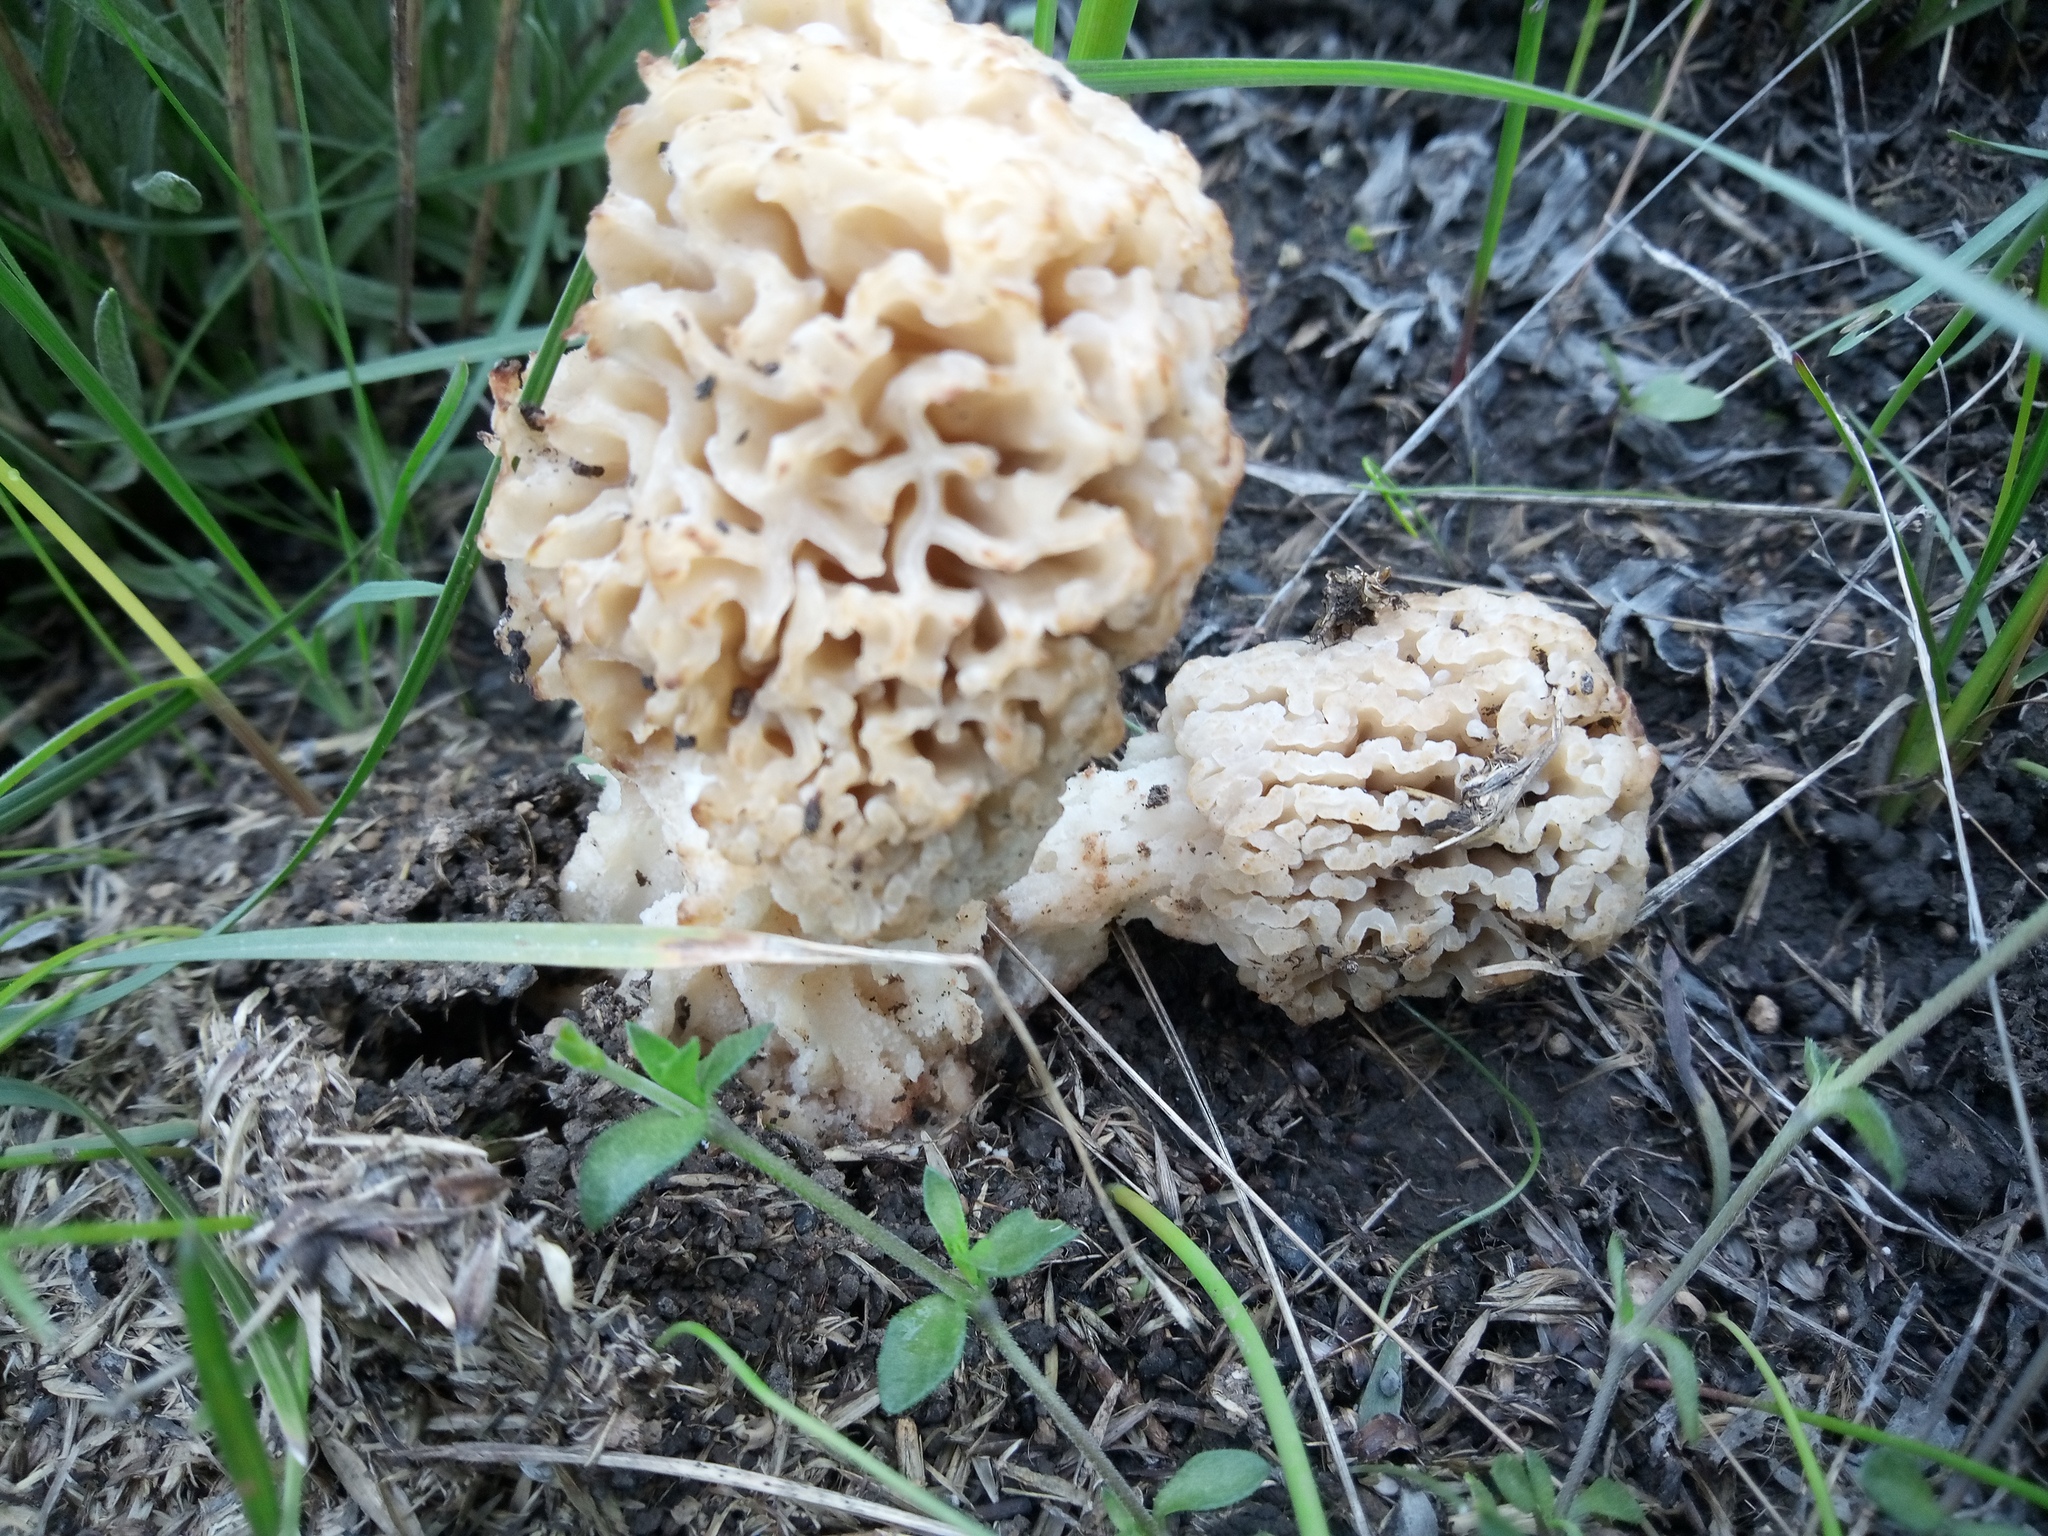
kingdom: Fungi
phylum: Ascomycota
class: Pezizomycetes
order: Pezizales
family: Morchellaceae
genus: Morchella
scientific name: Morchella steppicola
